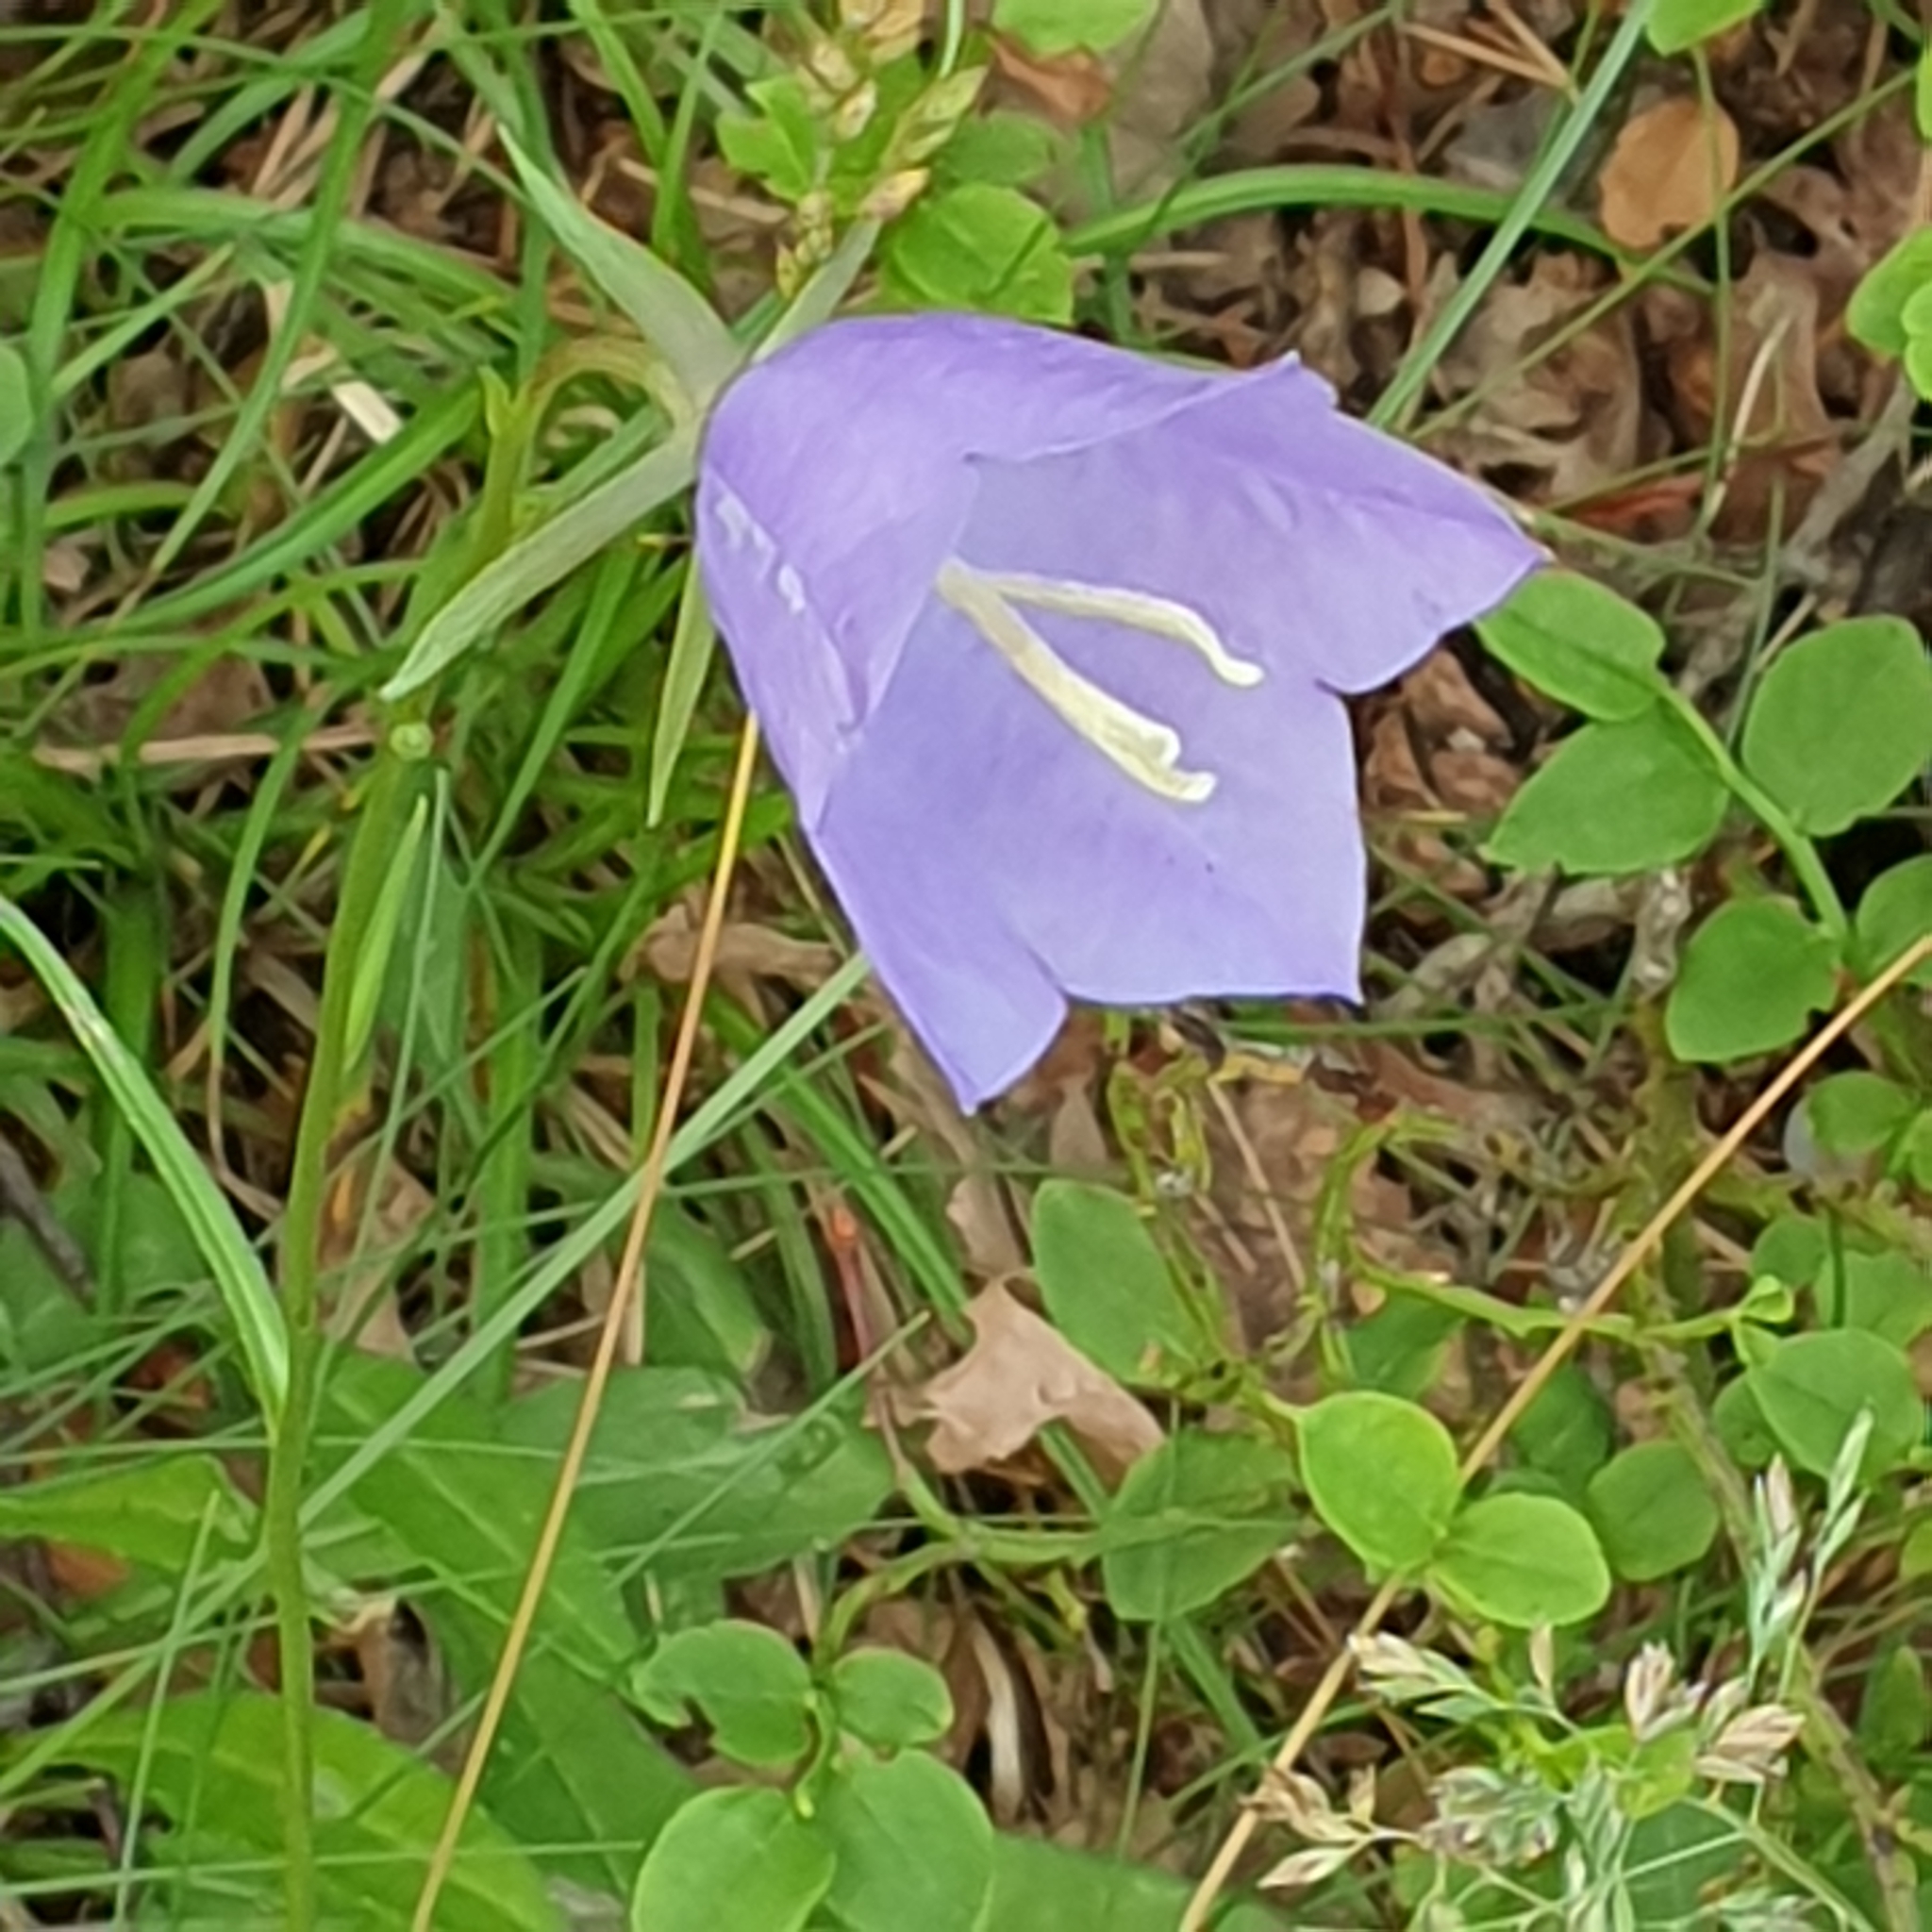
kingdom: Plantae
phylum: Tracheophyta
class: Magnoliopsida
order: Asterales
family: Campanulaceae
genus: Campanula
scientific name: Campanula persicifolia
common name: Peach-leaved bellflower
